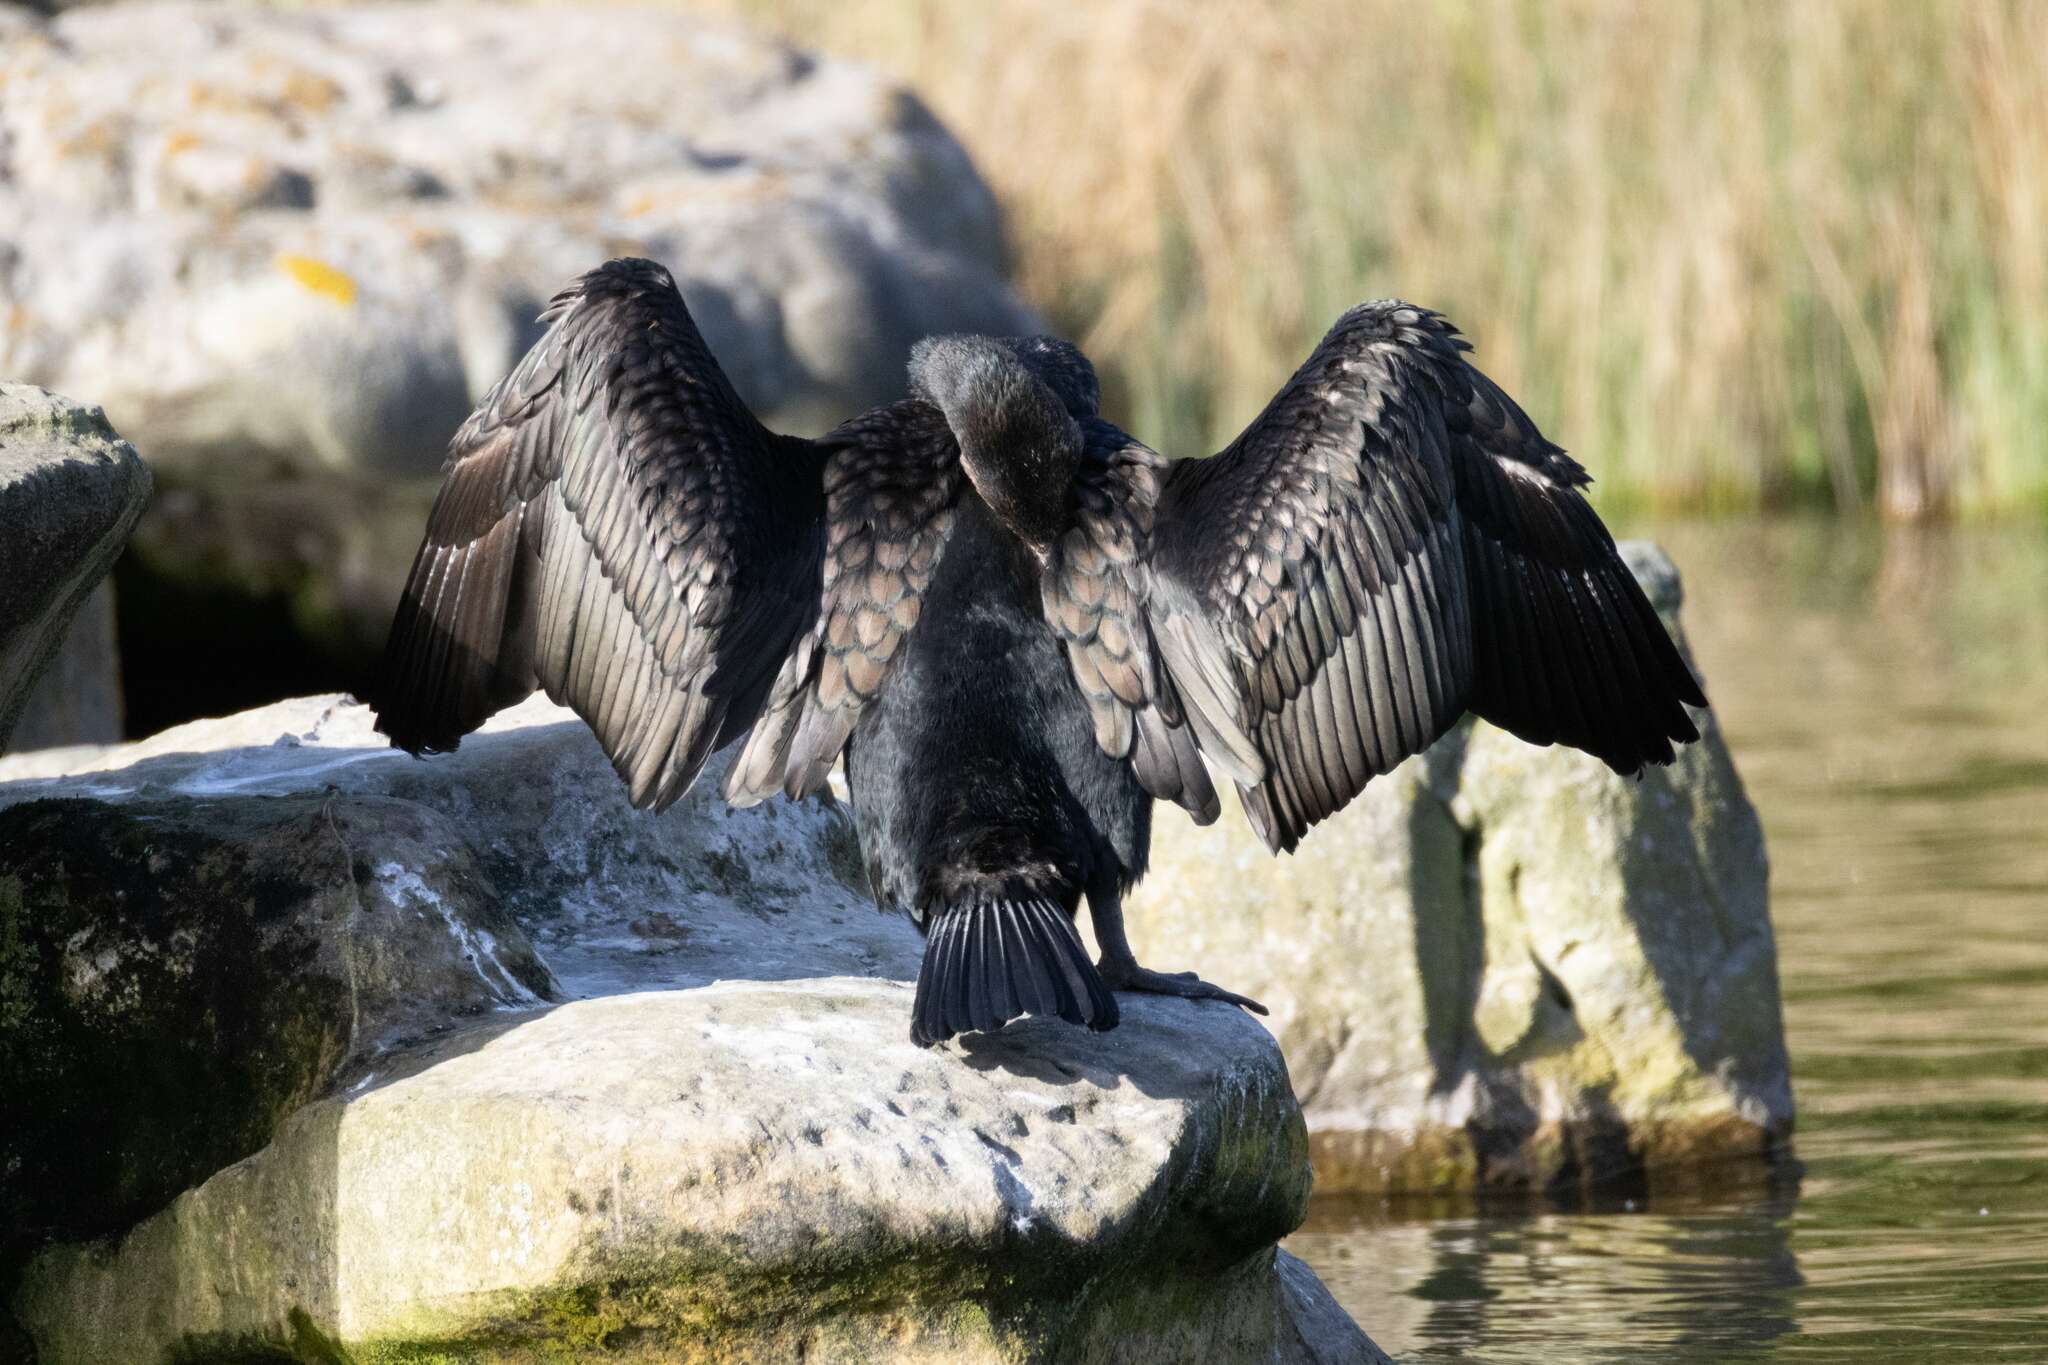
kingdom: Animalia
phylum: Chordata
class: Aves
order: Suliformes
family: Phalacrocoracidae
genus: Phalacrocorax
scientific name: Phalacrocorax carbo
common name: Great cormorant
